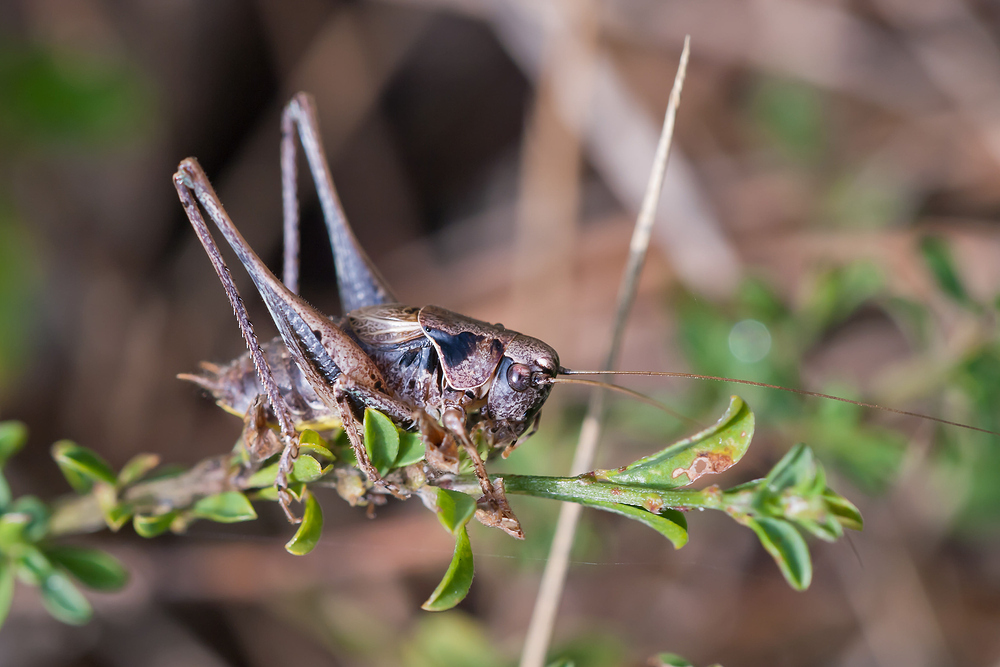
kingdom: Animalia
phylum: Arthropoda
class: Insecta
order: Orthoptera
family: Tettigoniidae
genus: Pholidoptera
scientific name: Pholidoptera griseoaptera
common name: Dark bush-cricket
